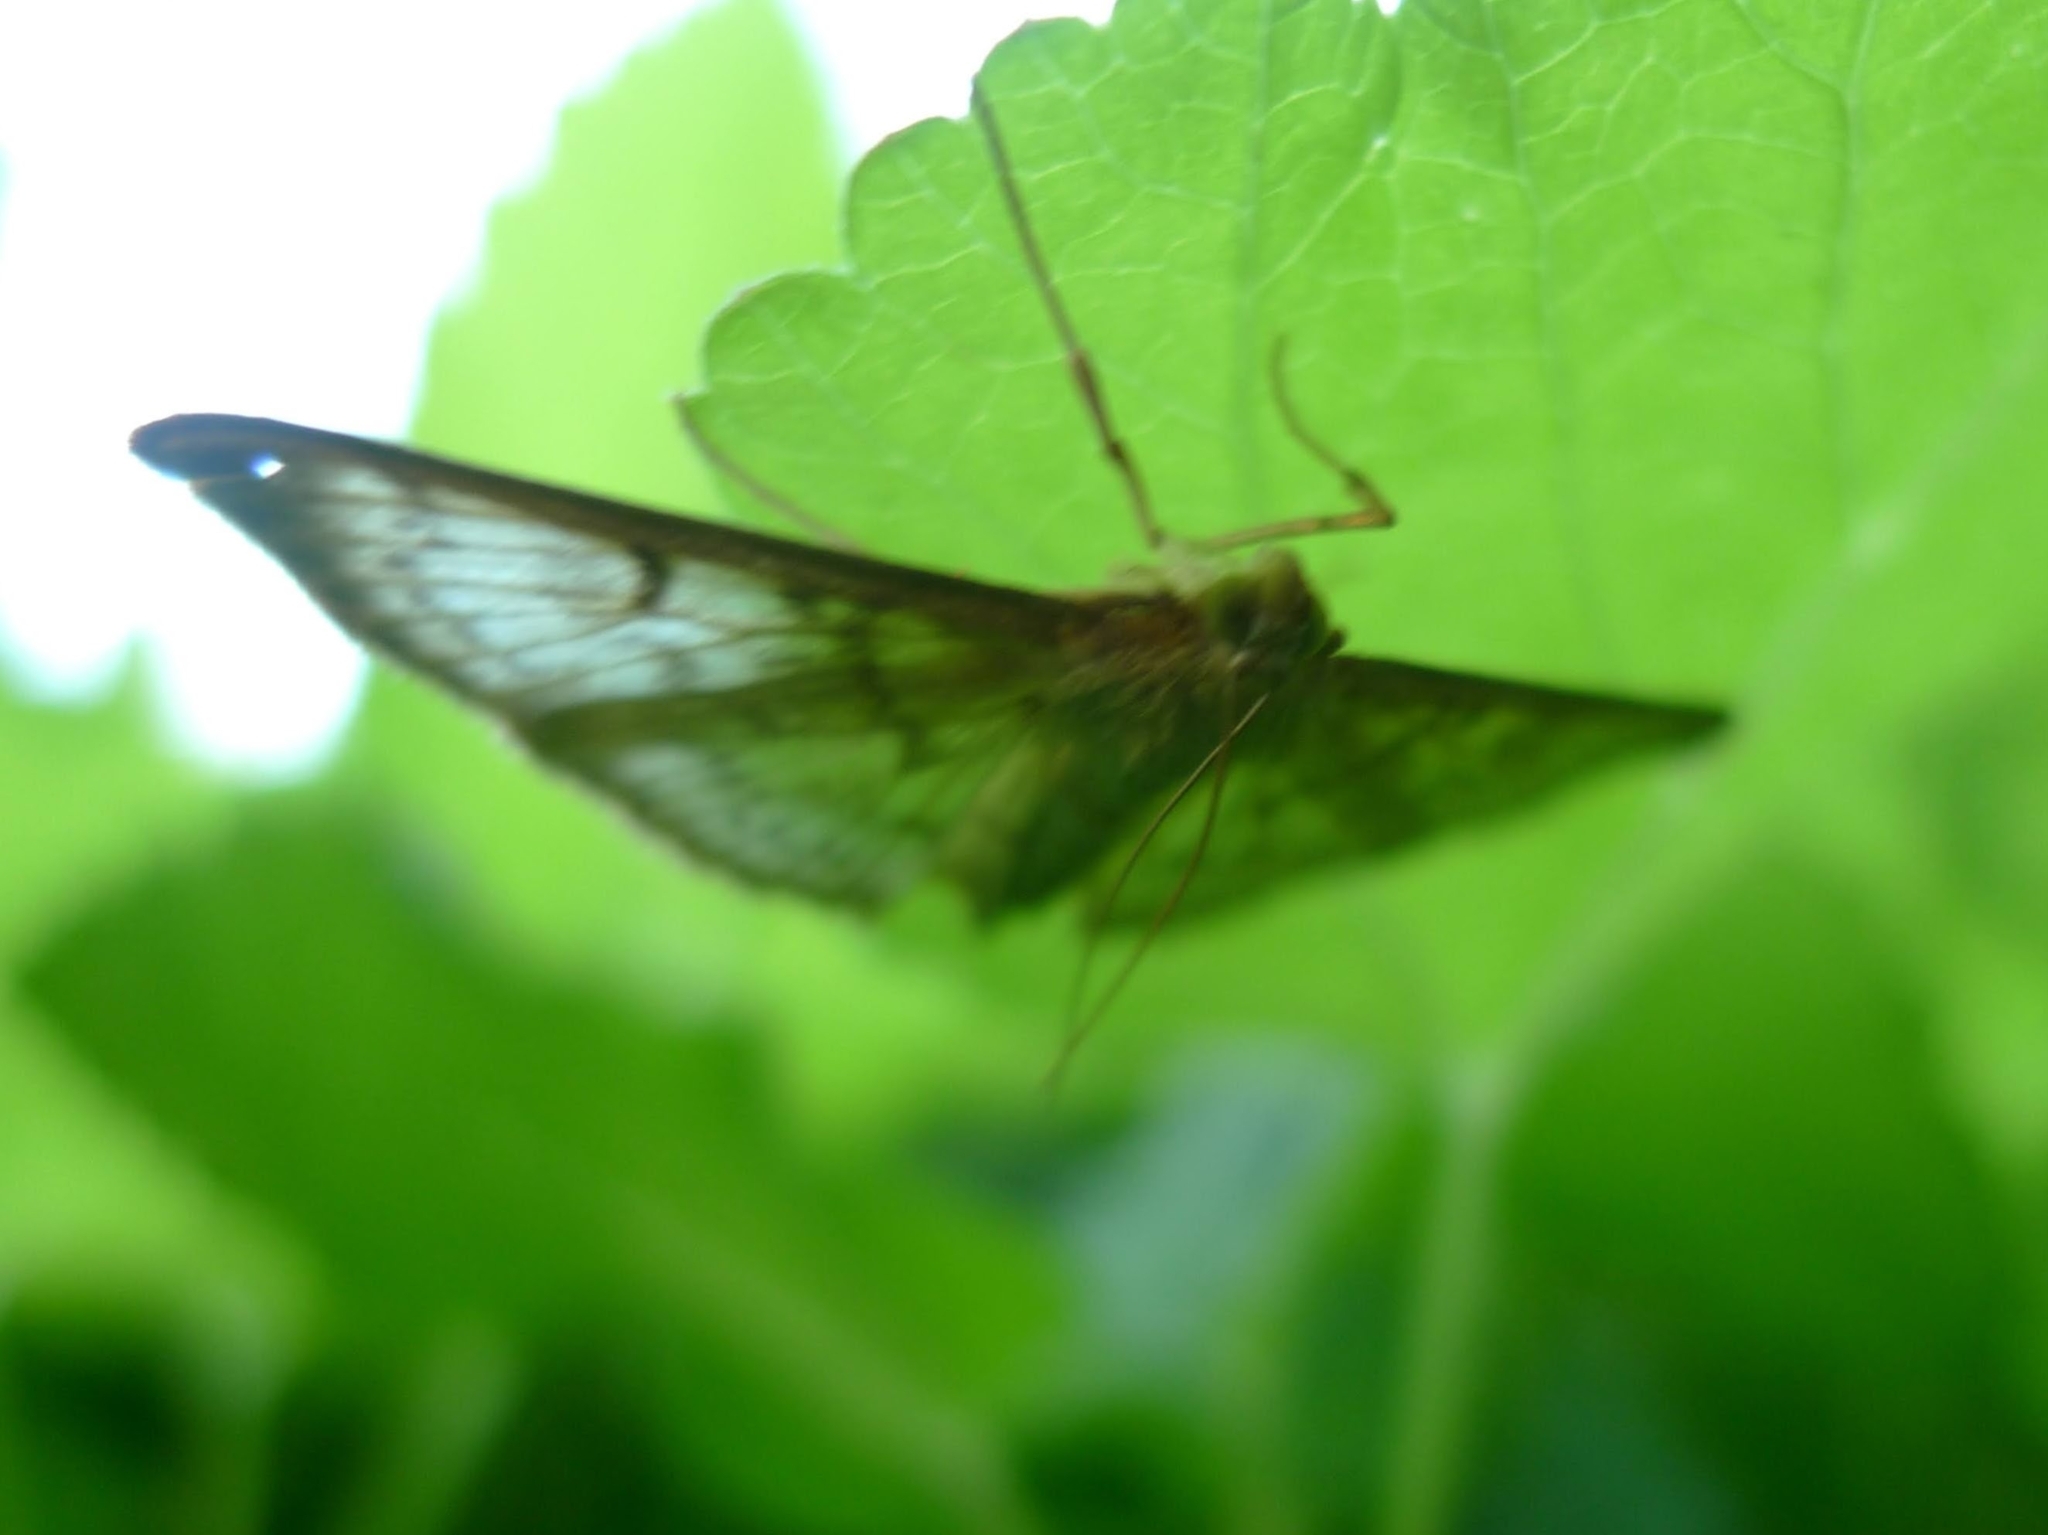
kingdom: Animalia
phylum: Arthropoda
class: Insecta
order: Lepidoptera
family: Crambidae
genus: Patania
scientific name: Patania ruralis
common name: Mother of pearl
